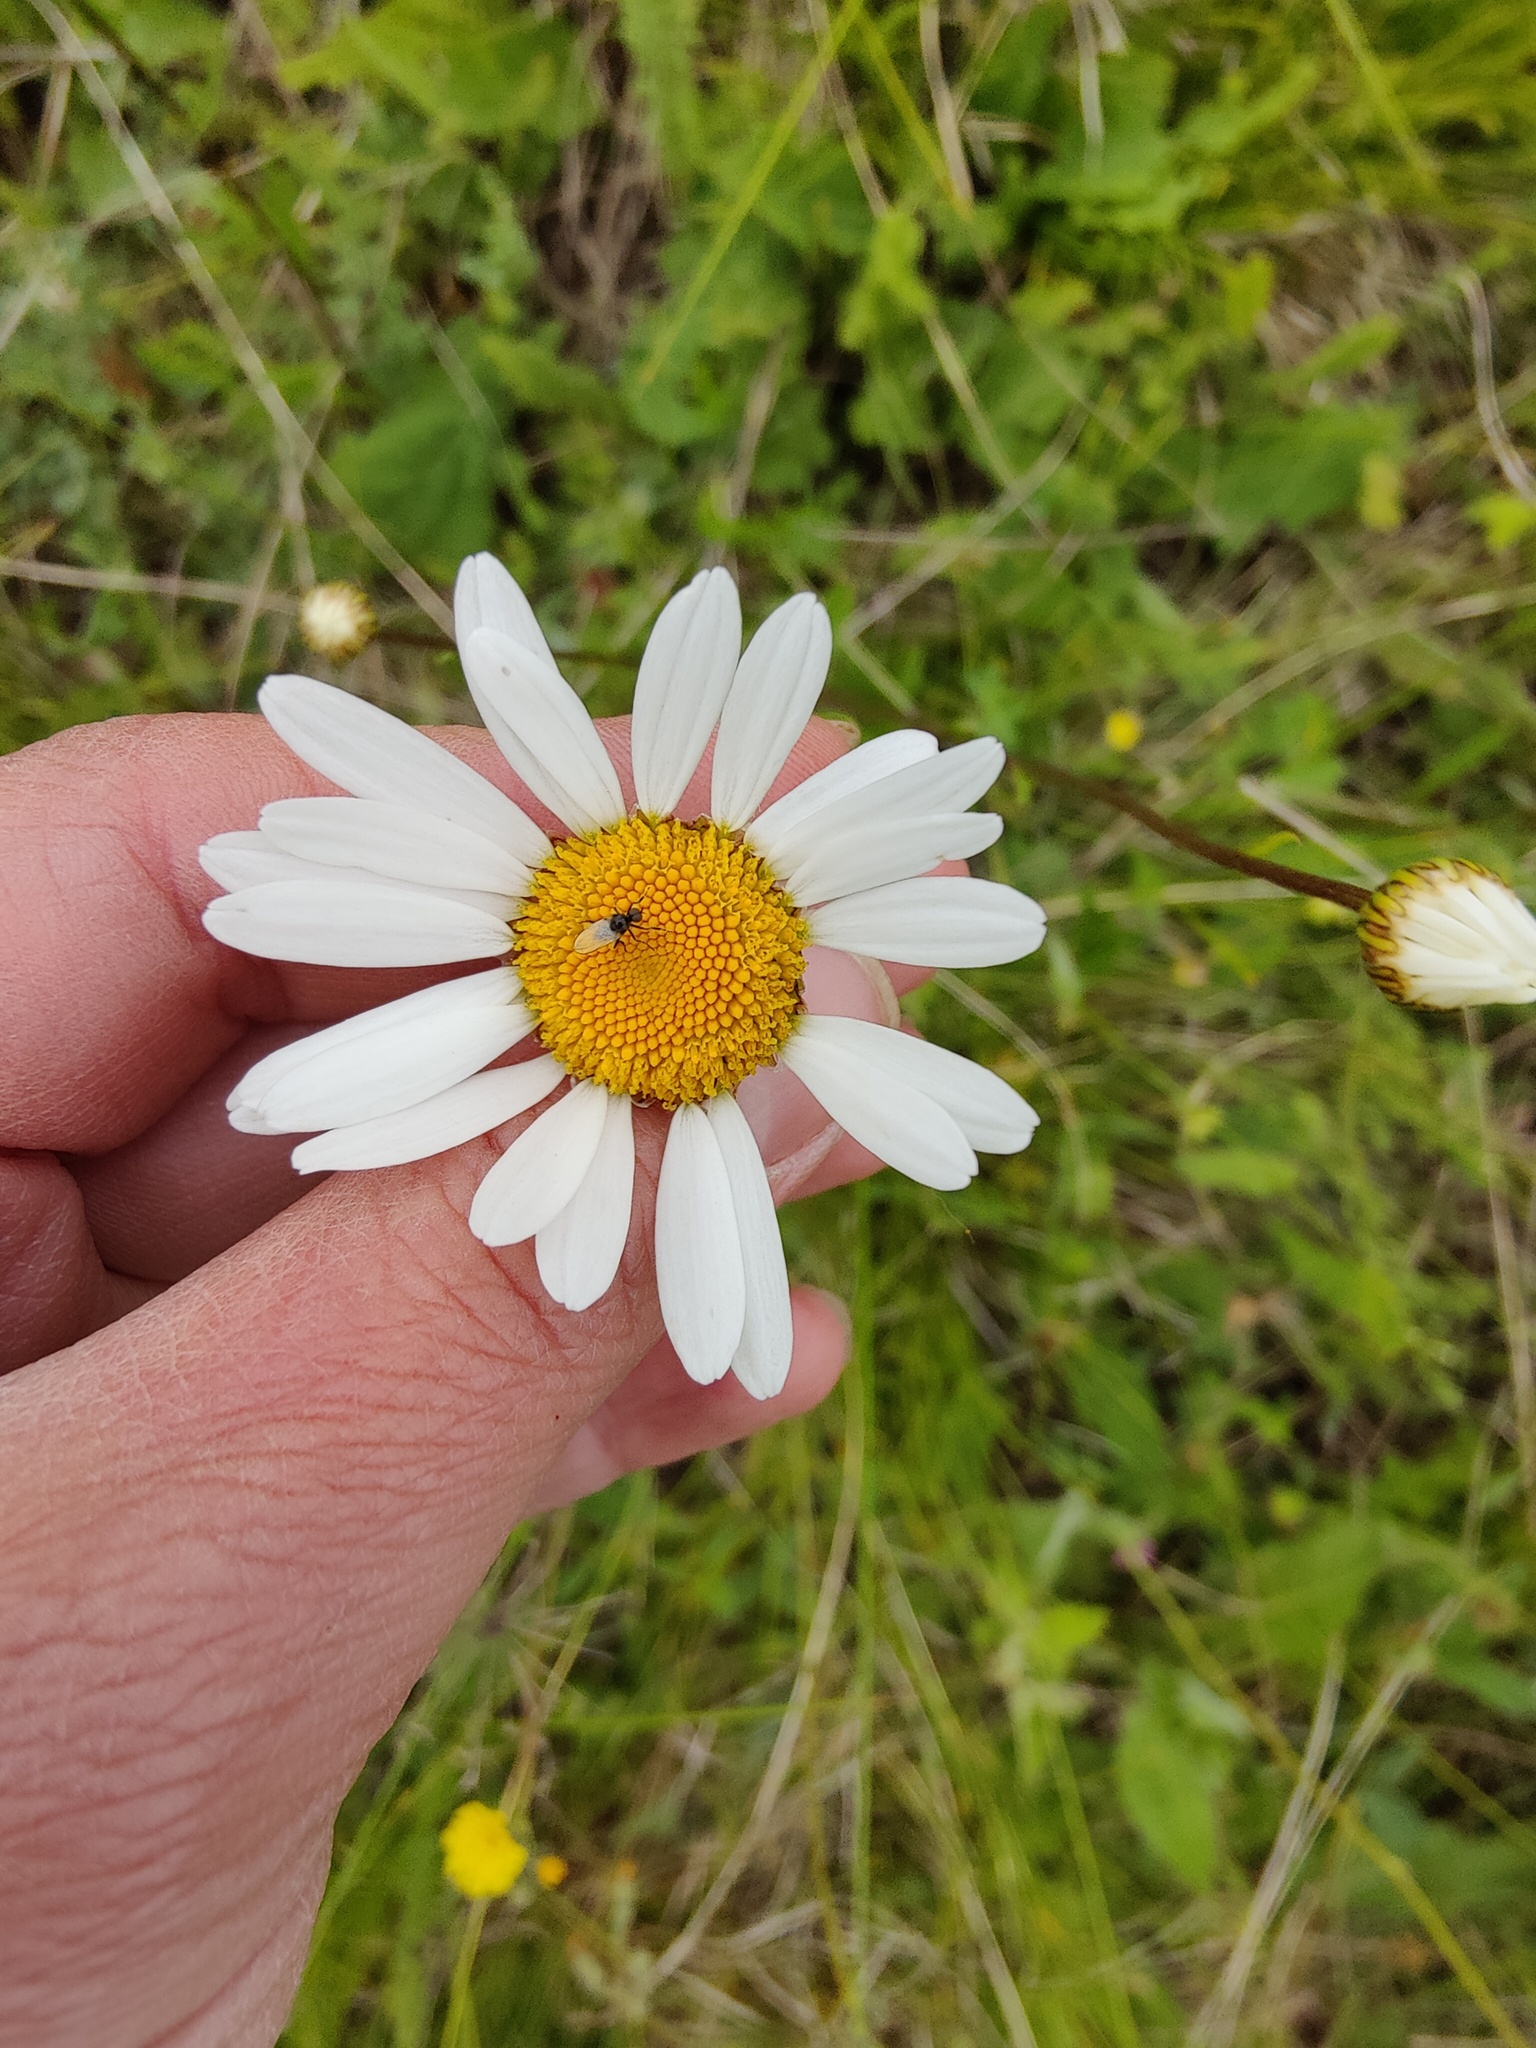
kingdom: Plantae
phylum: Tracheophyta
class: Magnoliopsida
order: Asterales
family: Asteraceae
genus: Leucanthemum
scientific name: Leucanthemum vulgare
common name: Oxeye daisy
